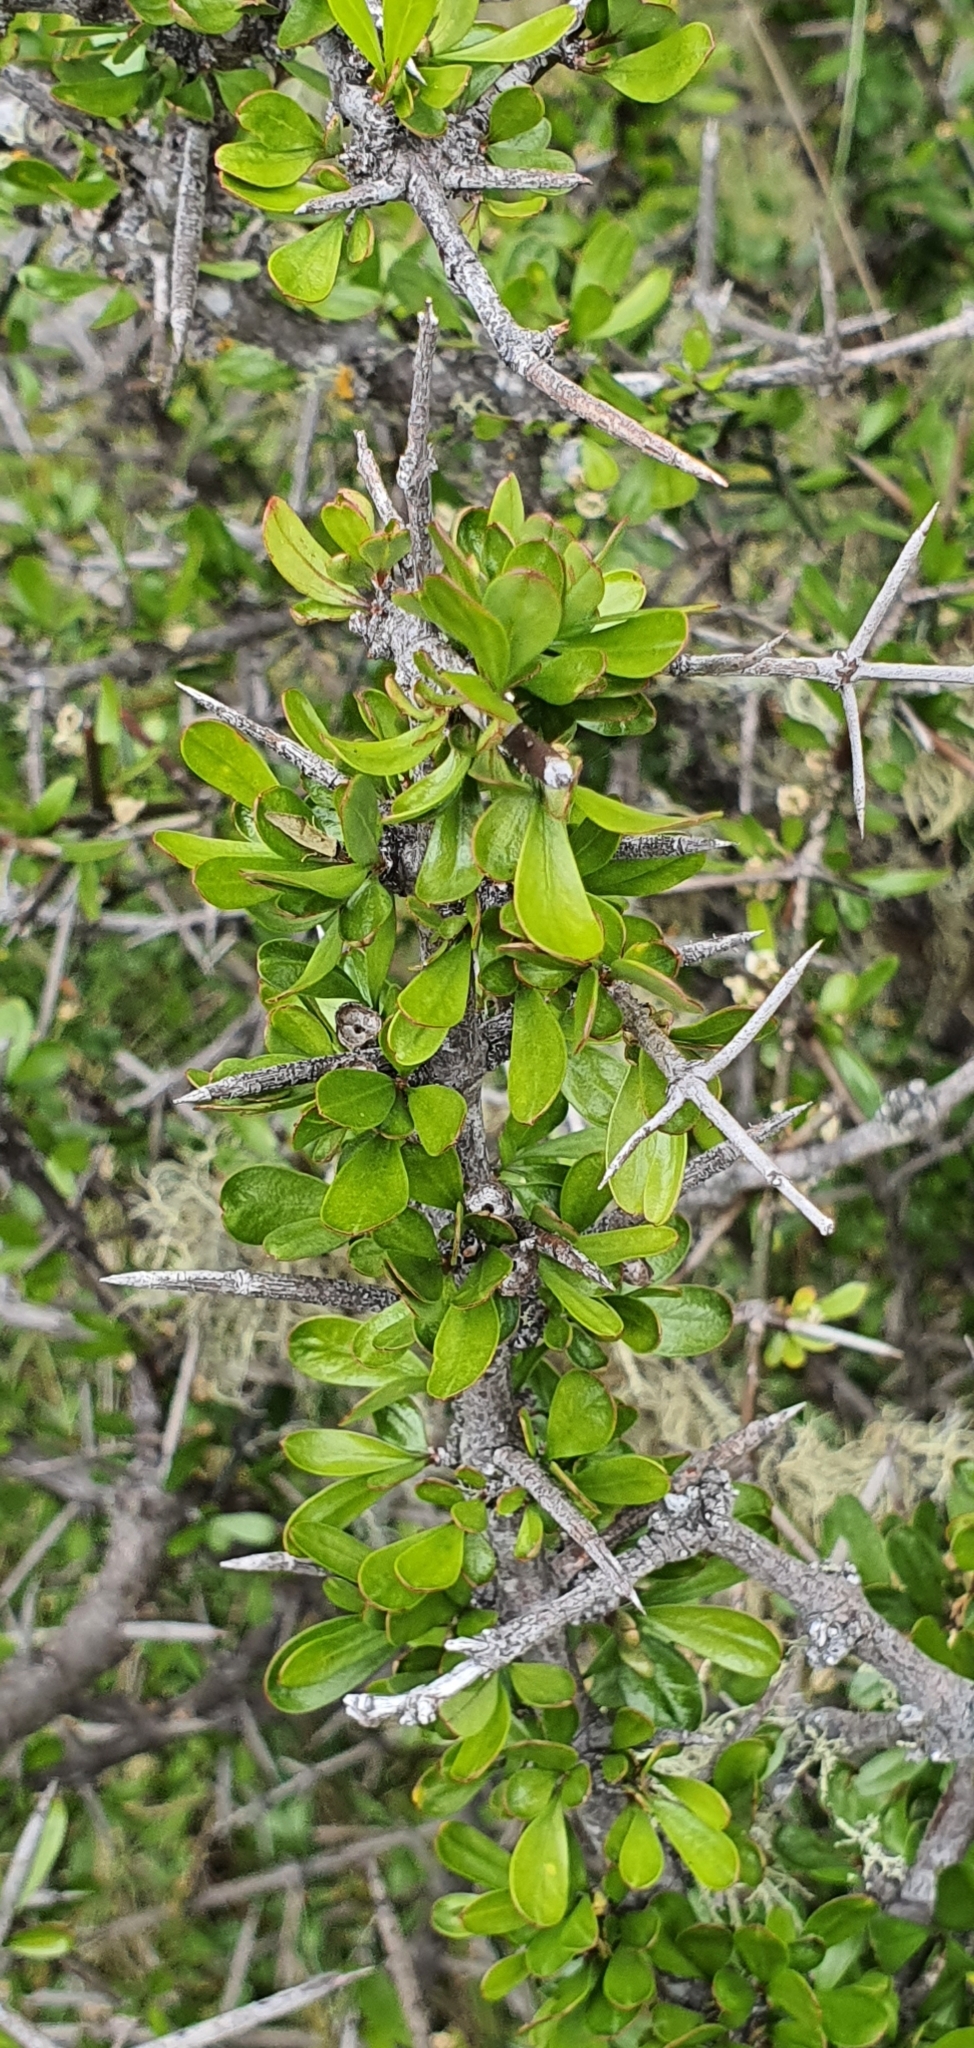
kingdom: Plantae
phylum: Tracheophyta
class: Magnoliopsida
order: Rosales
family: Rhamnaceae
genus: Discaria
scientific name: Discaria toumatou
